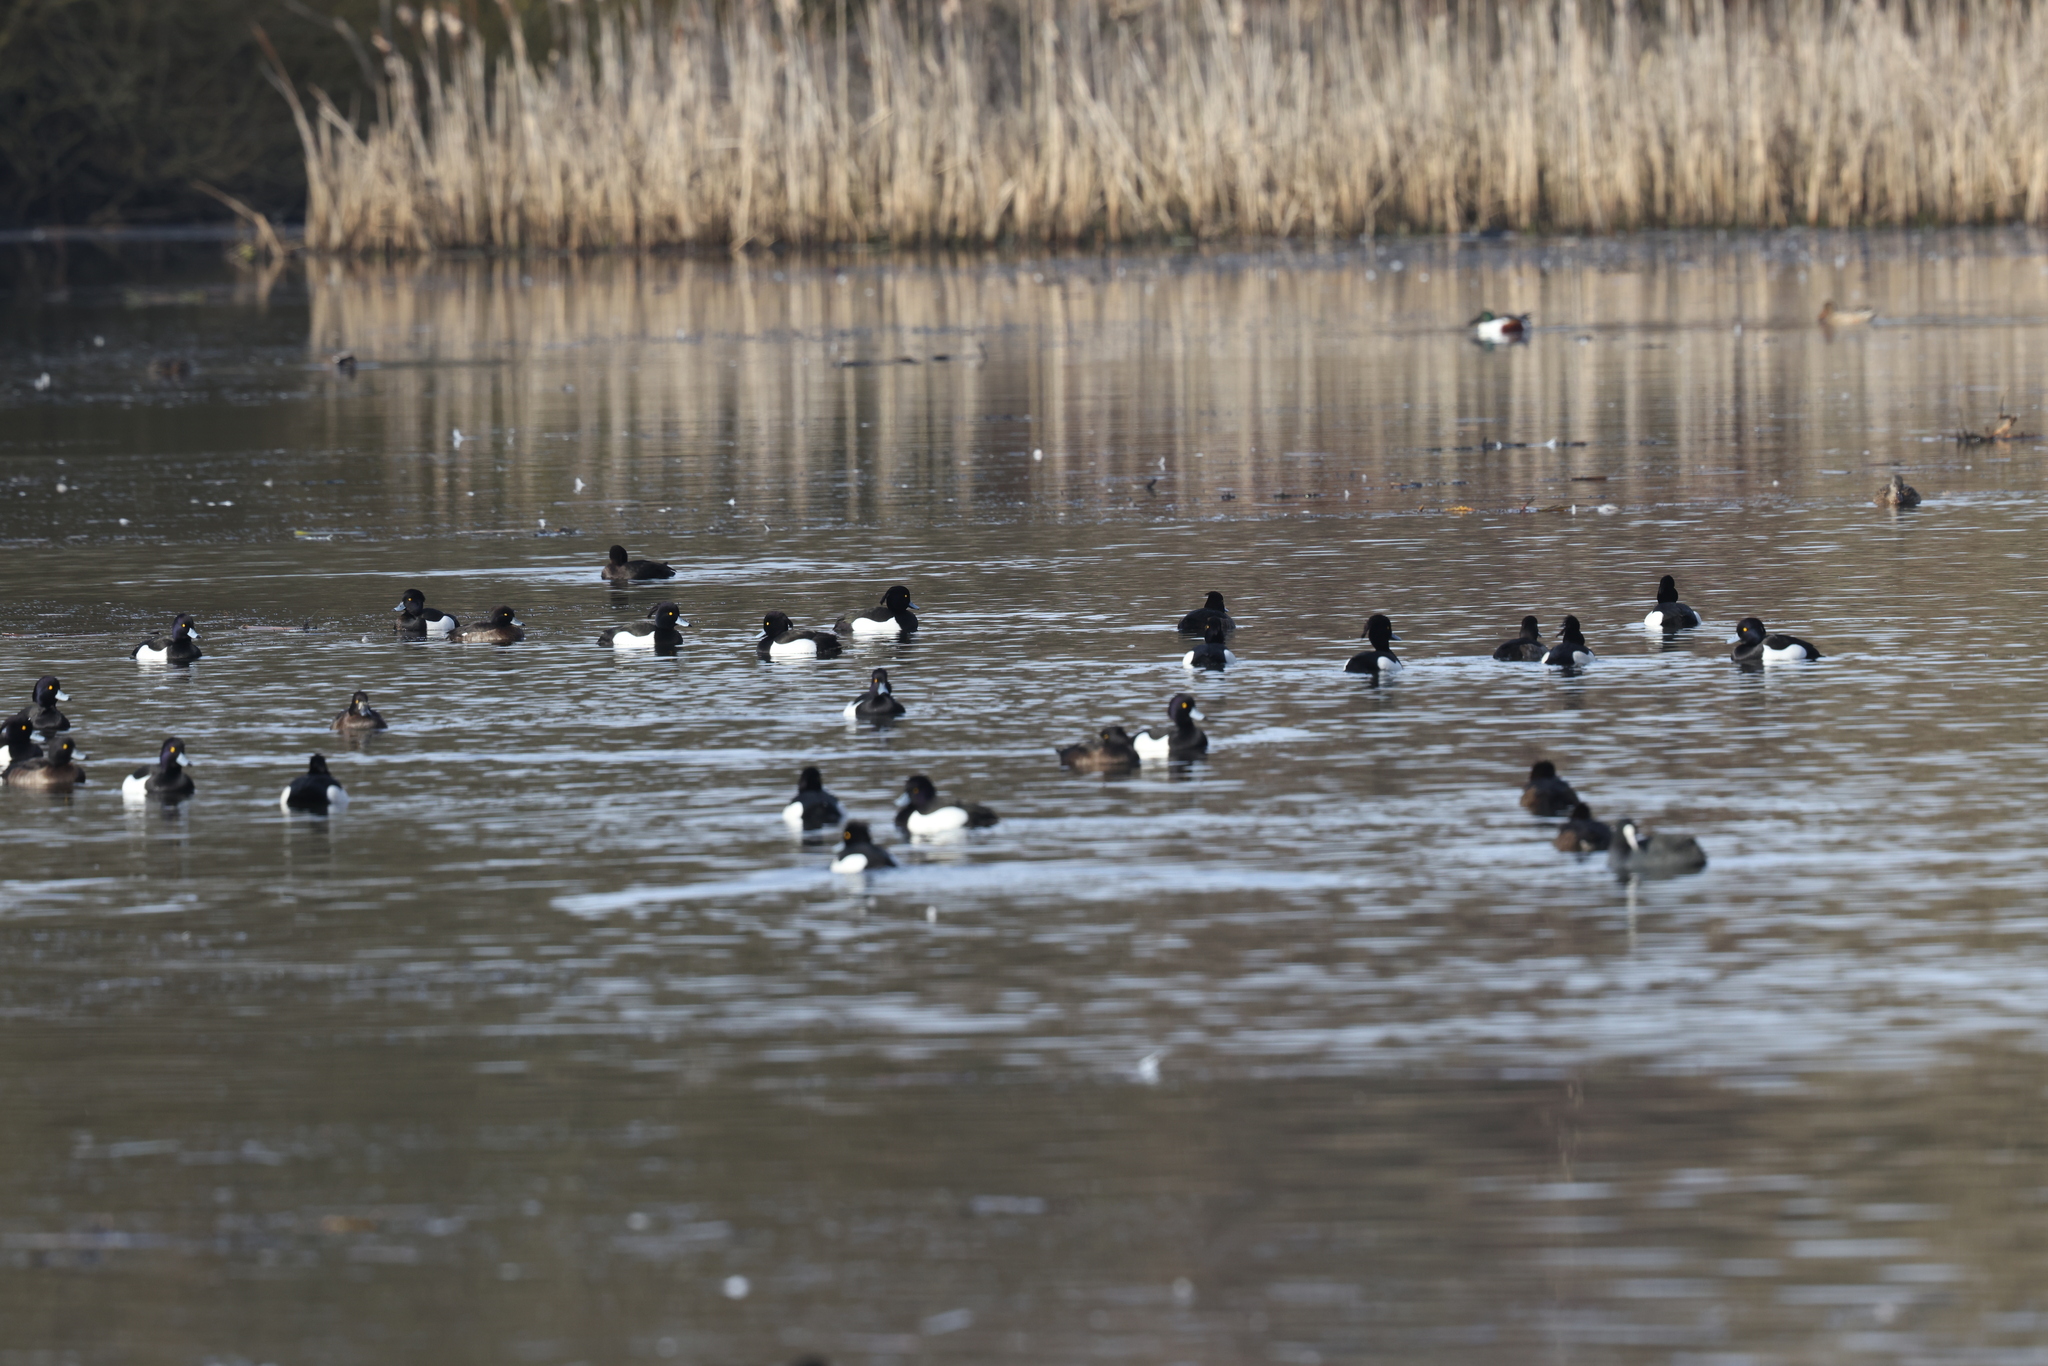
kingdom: Animalia
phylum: Chordata
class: Aves
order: Anseriformes
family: Anatidae
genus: Aythya
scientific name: Aythya fuligula
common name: Tufted duck
